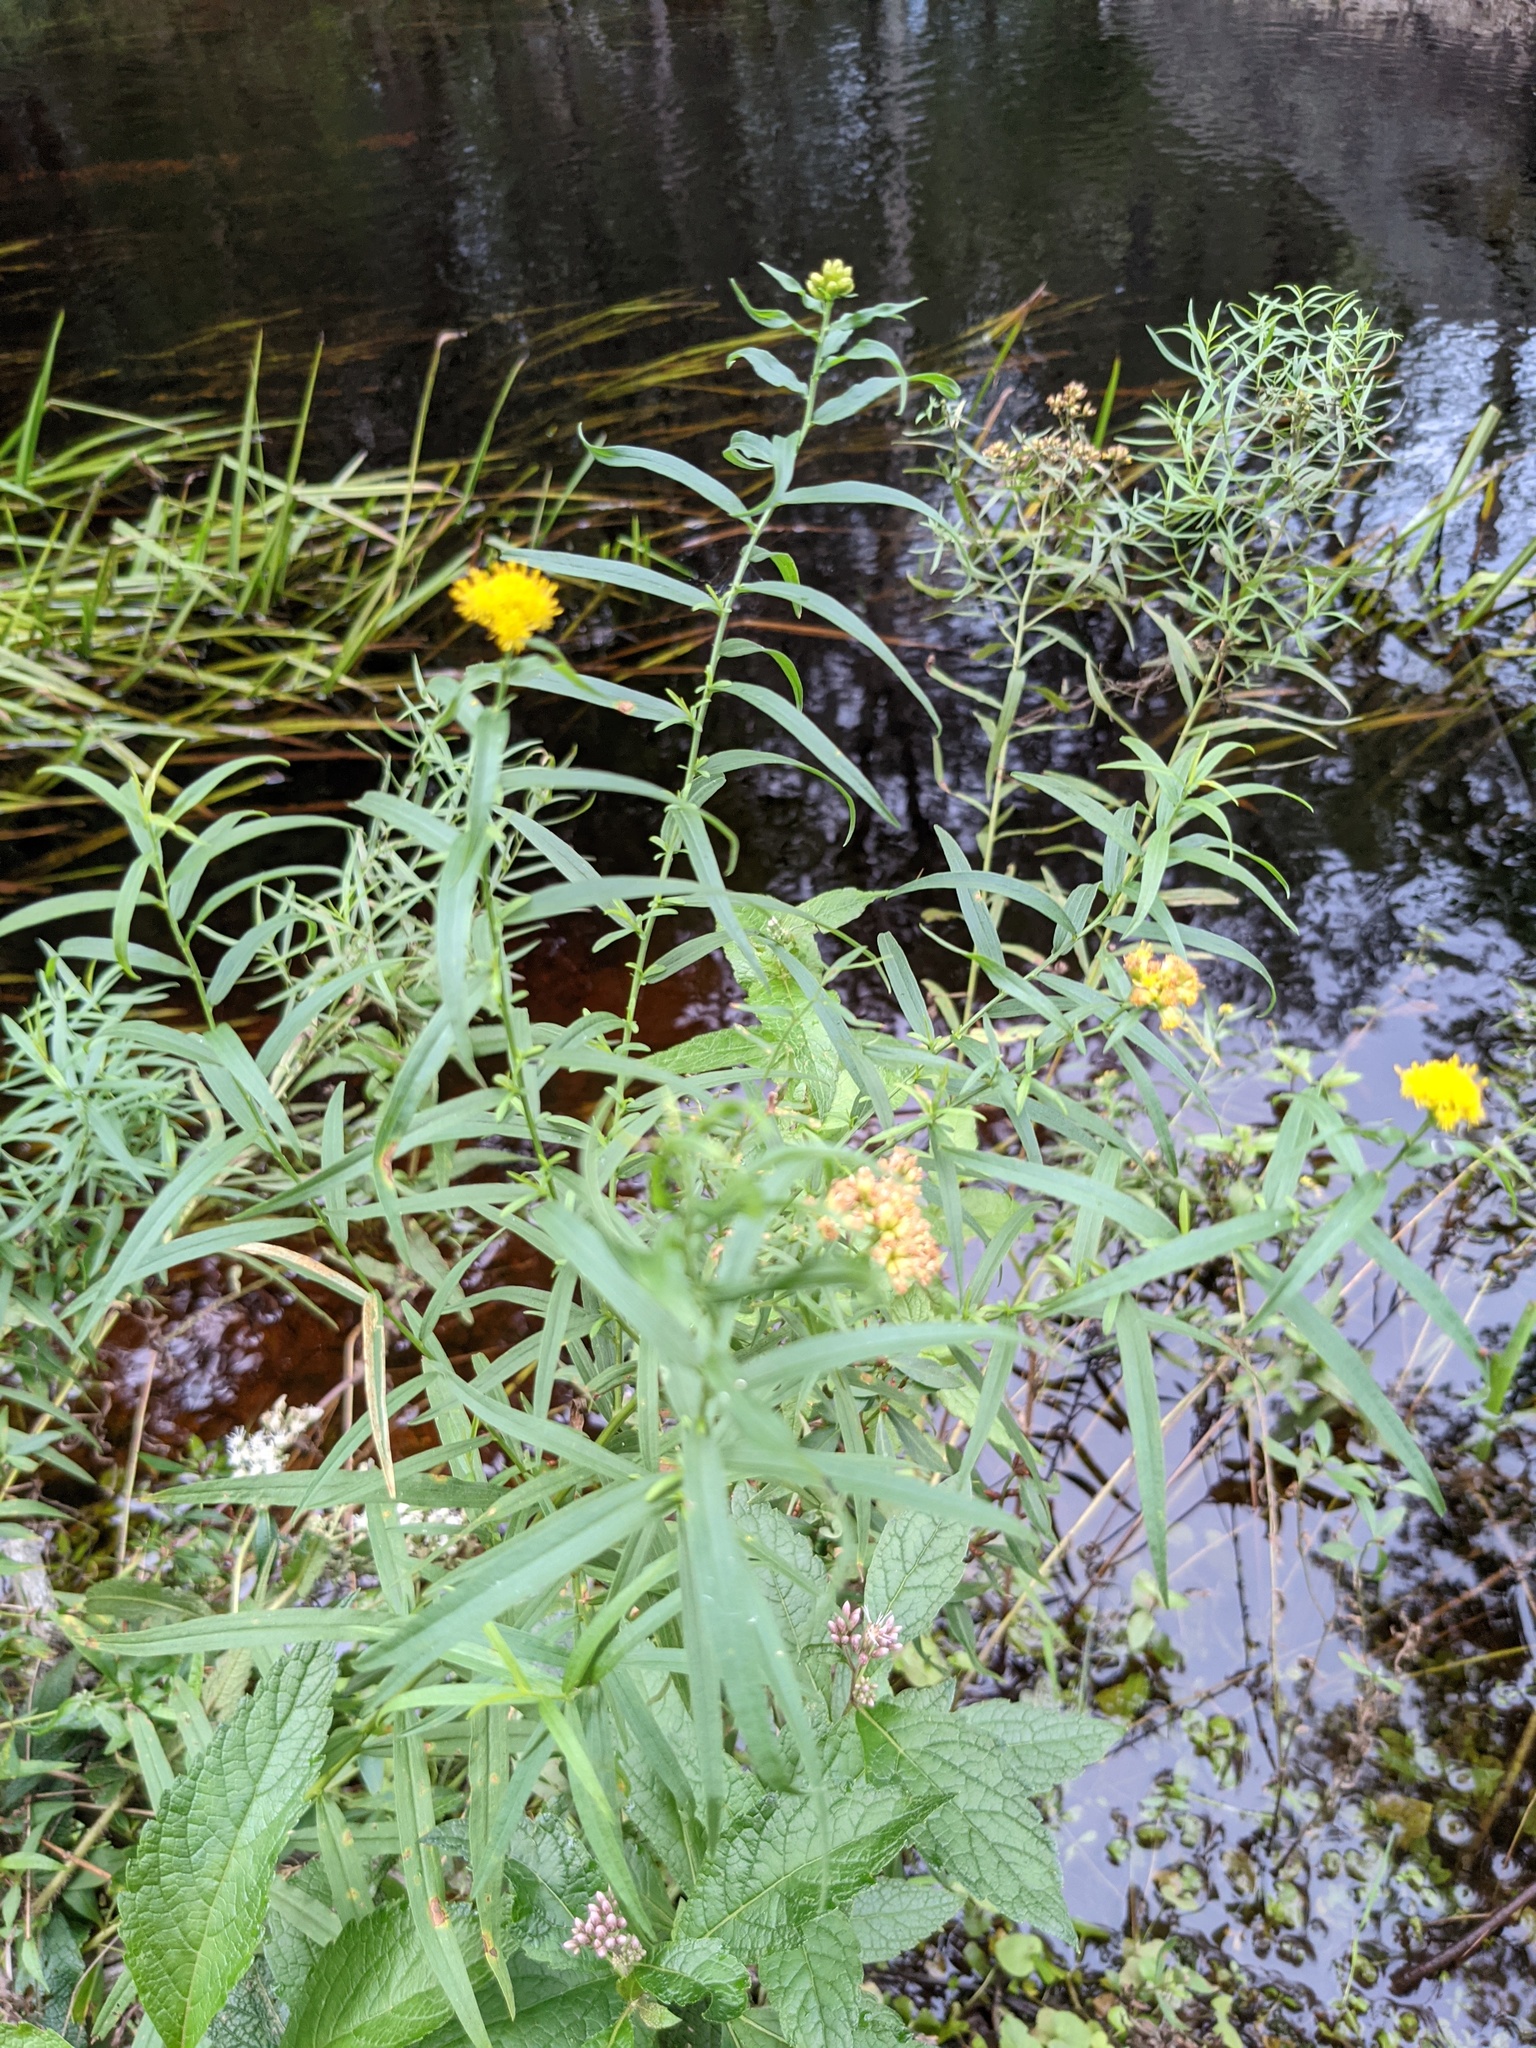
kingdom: Plantae
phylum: Tracheophyta
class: Magnoliopsida
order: Asterales
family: Asteraceae
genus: Euthamia
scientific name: Euthamia graminifolia
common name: Common goldentop
